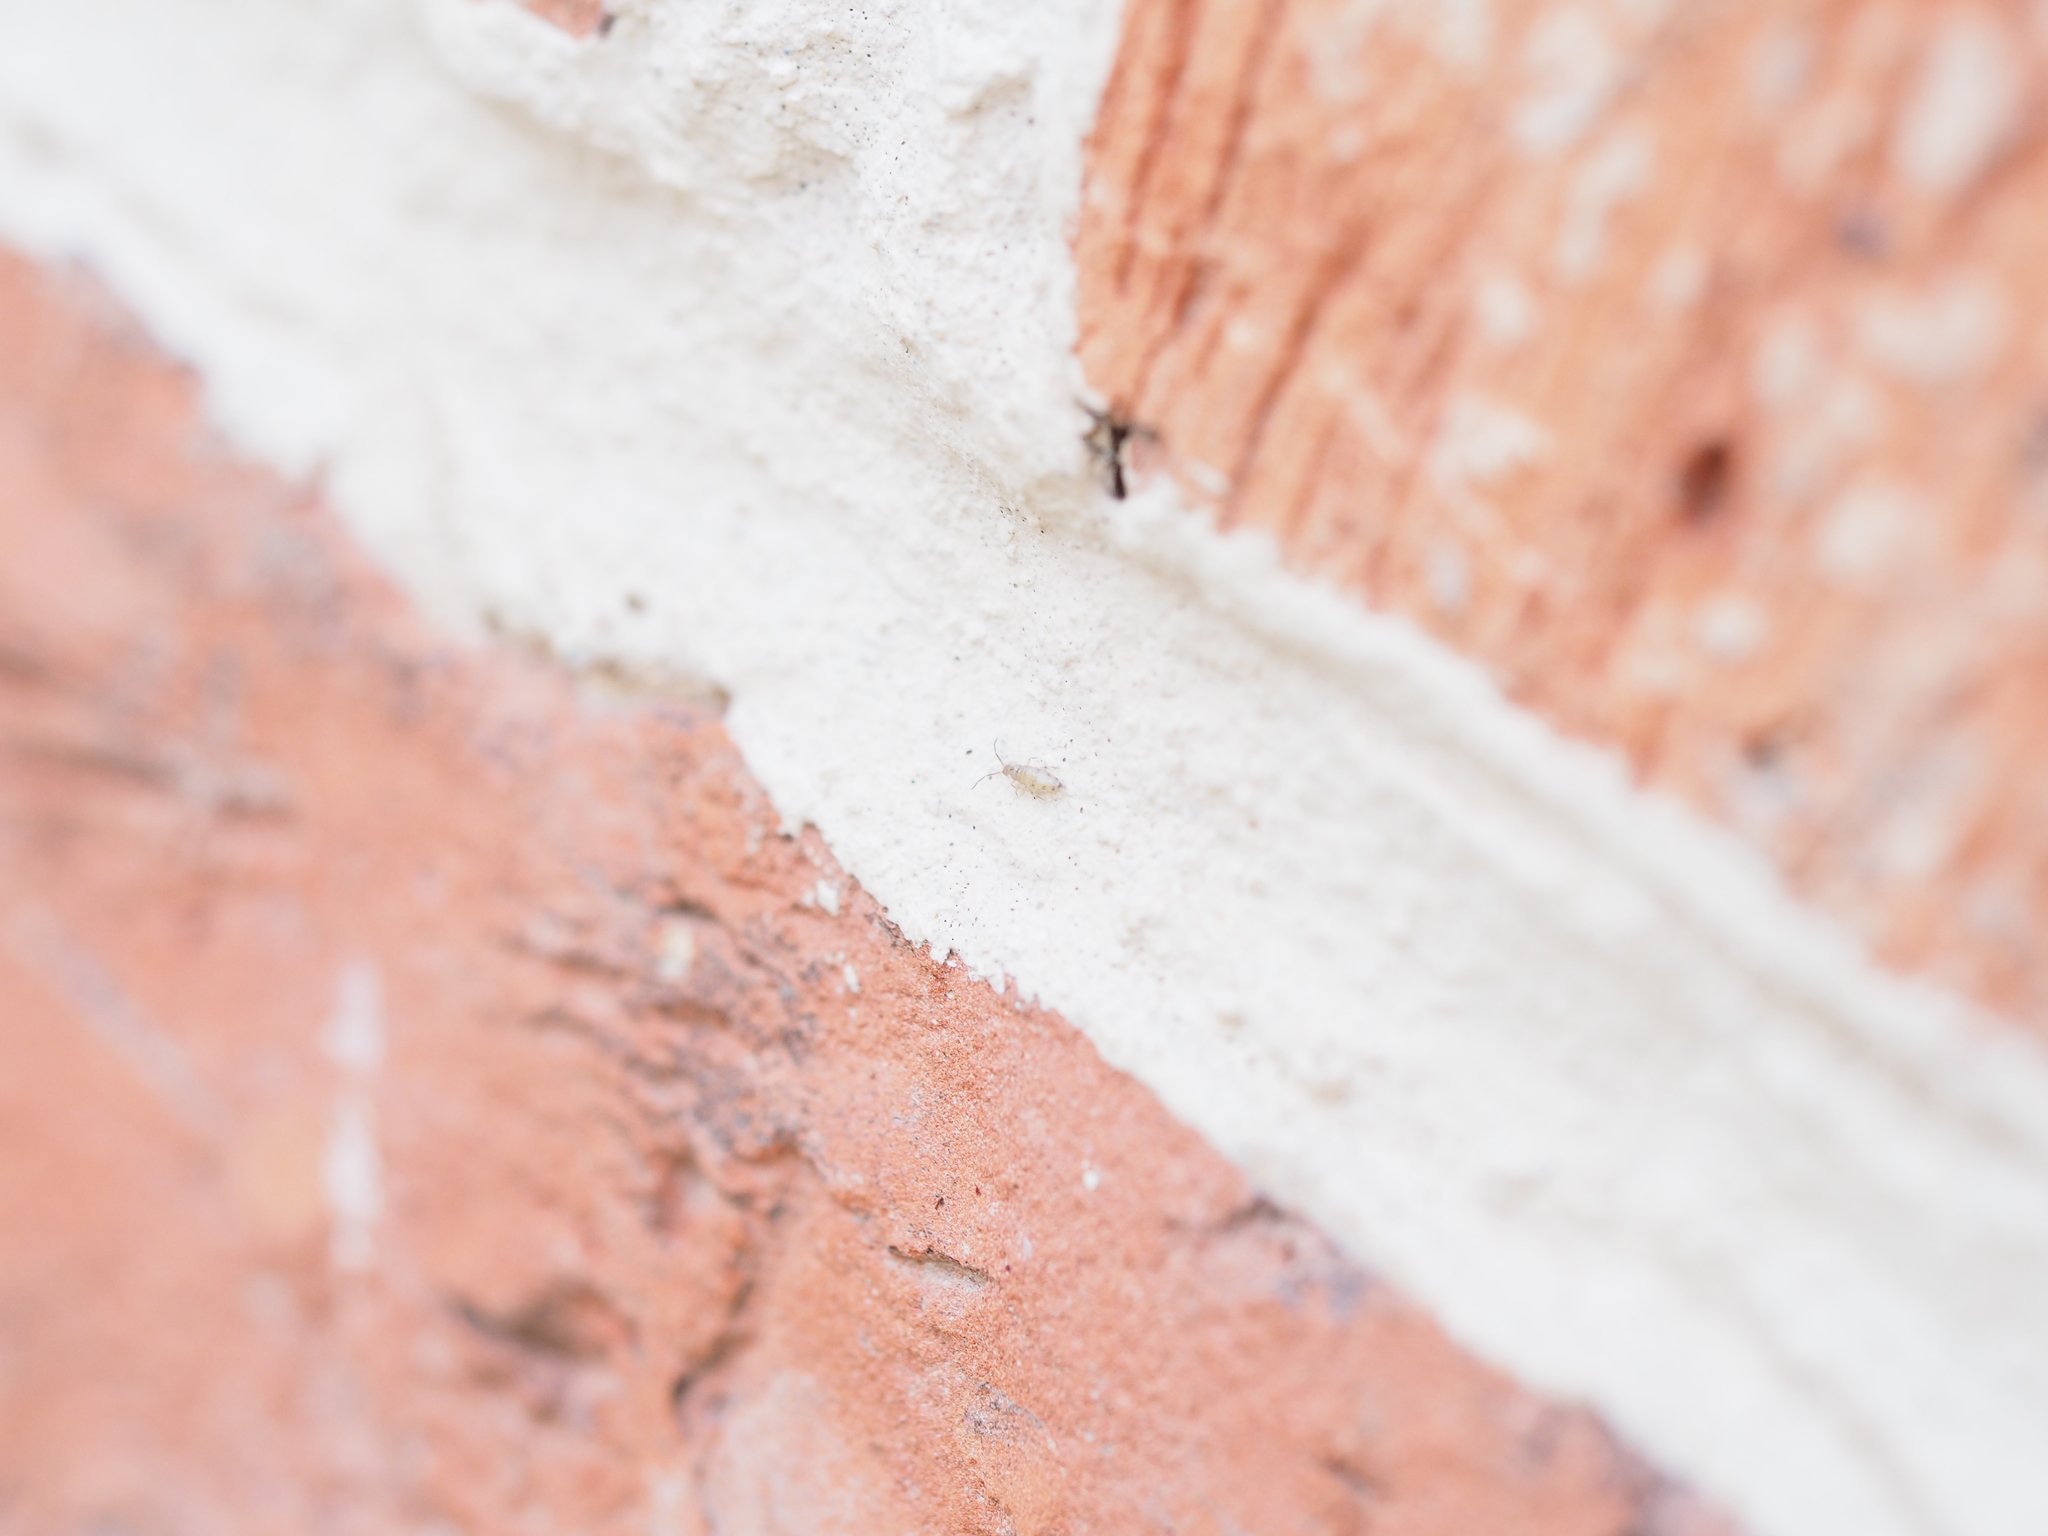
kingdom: Animalia
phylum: Arthropoda
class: Collembola
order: Entomobryomorpha
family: Entomobryidae
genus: Willowsia
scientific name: Willowsia nigromaculata
